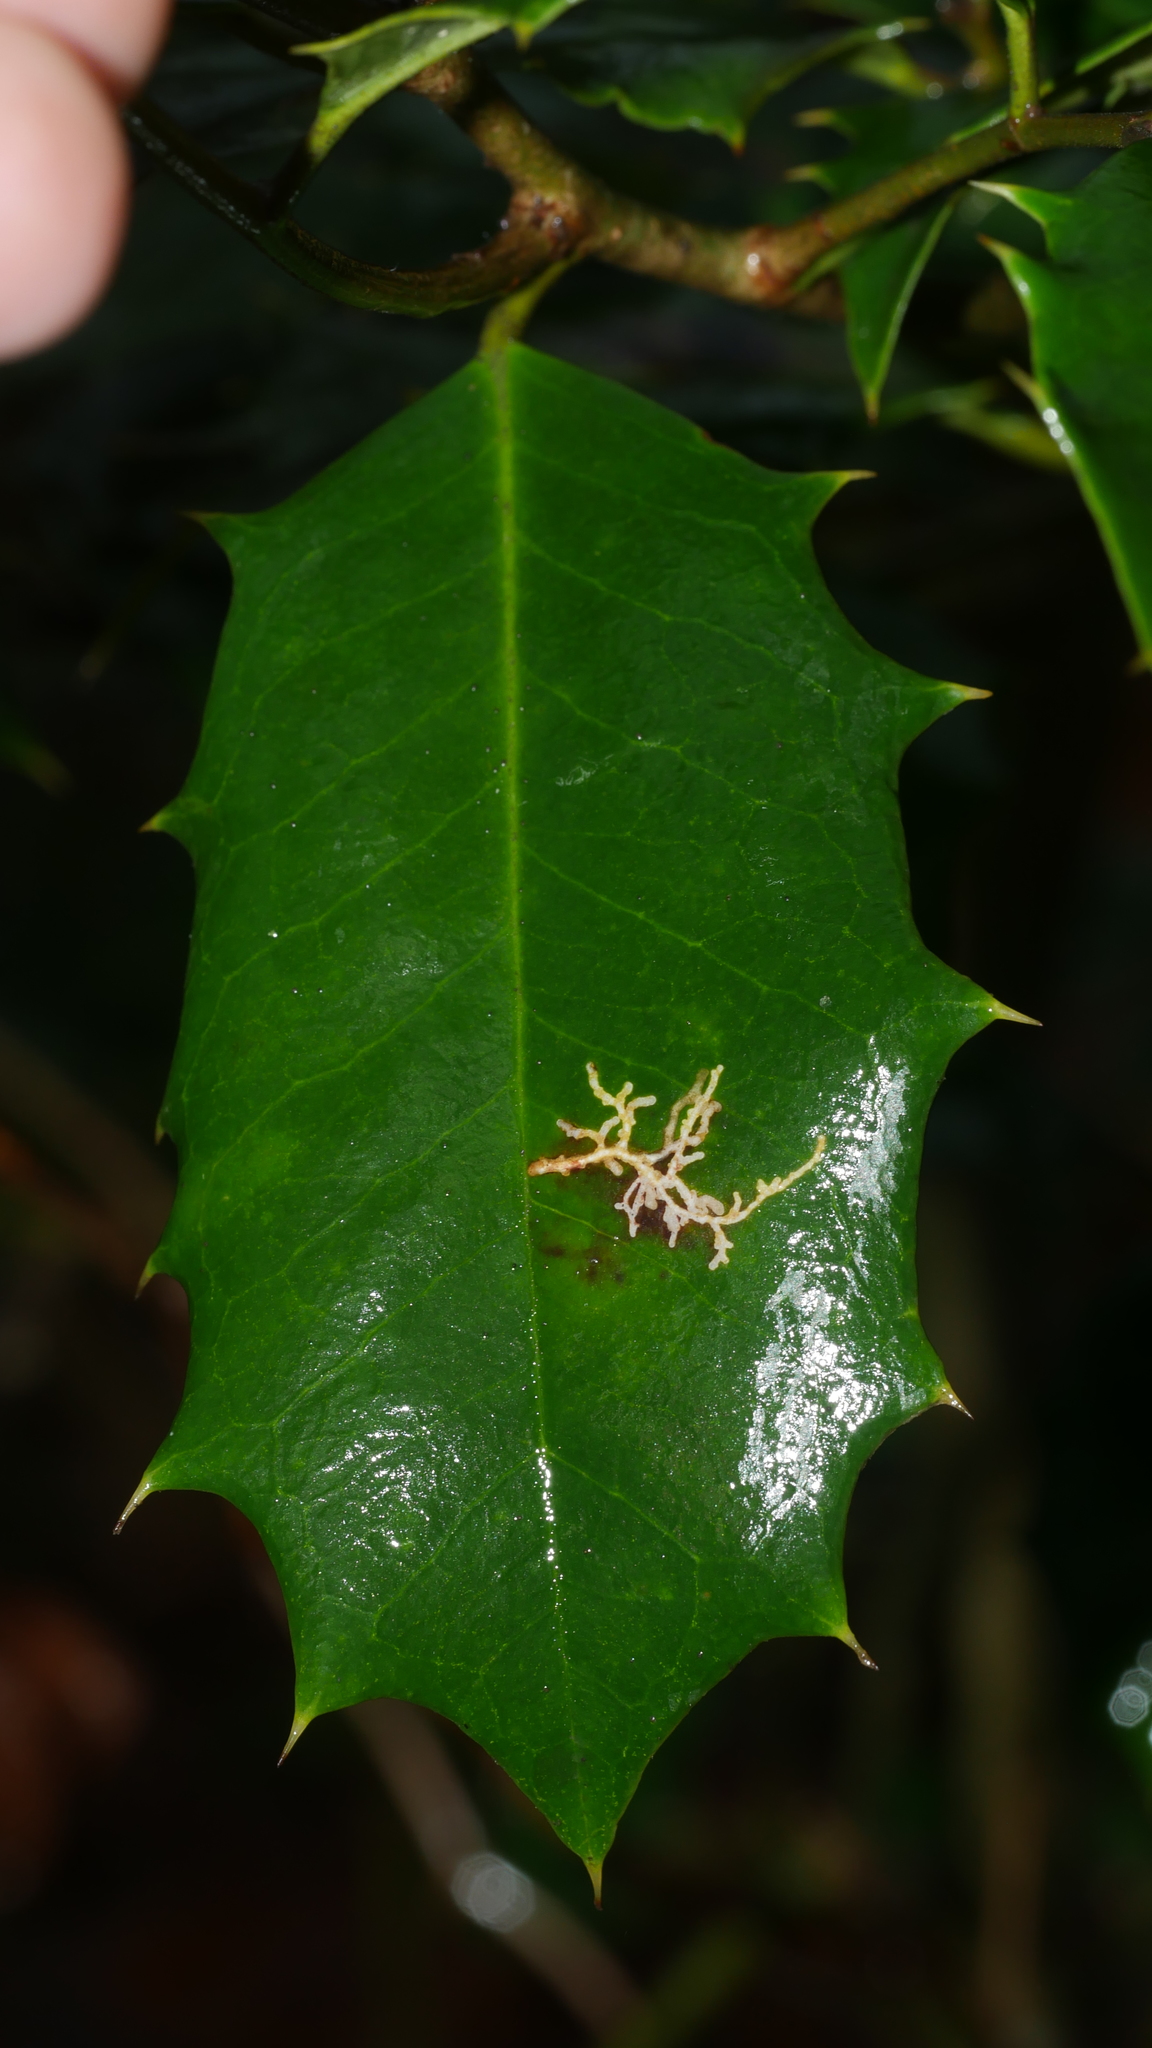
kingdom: Animalia
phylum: Arthropoda
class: Insecta
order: Lepidoptera
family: Tortricidae
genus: Rhopobota
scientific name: Rhopobota
